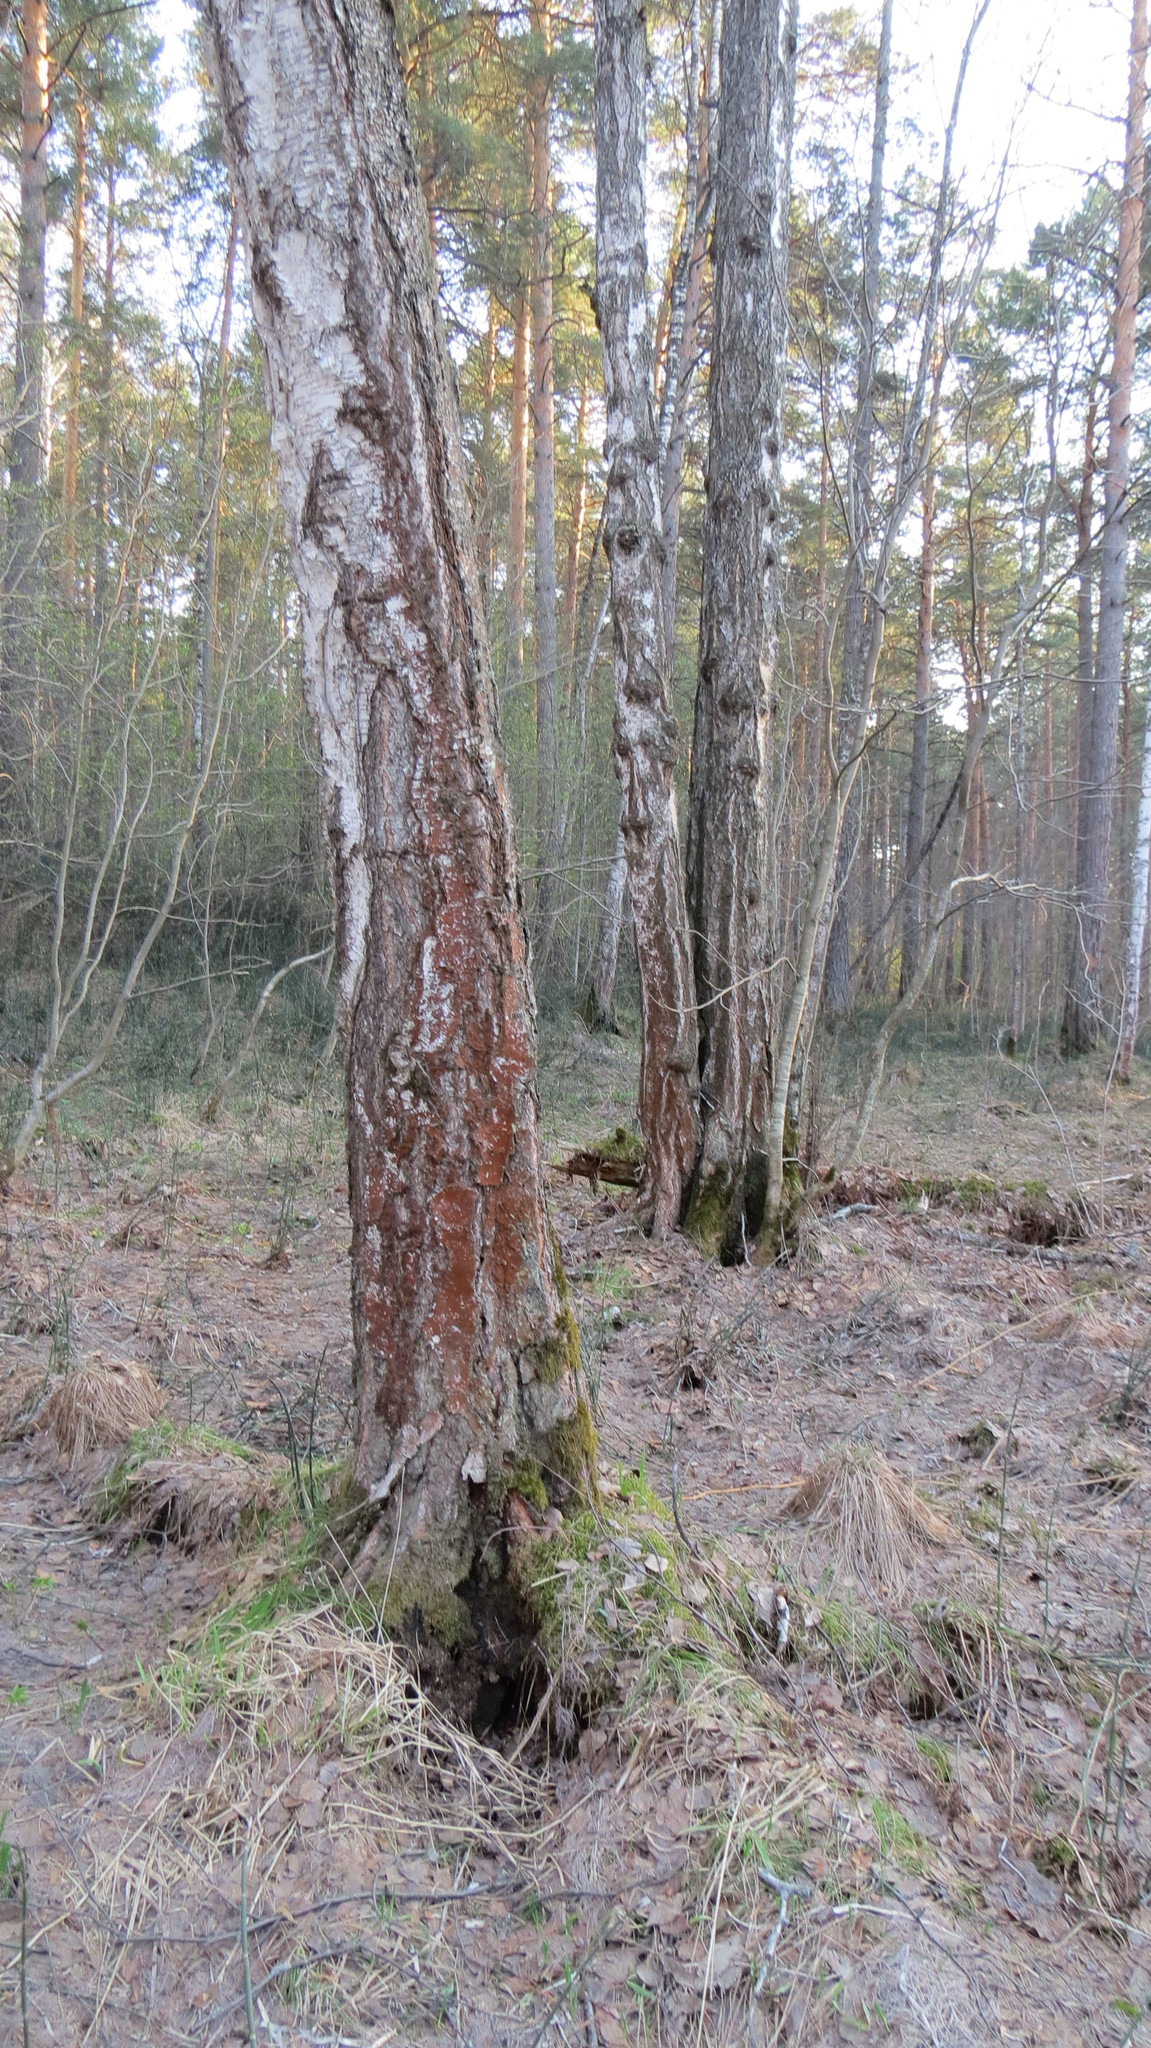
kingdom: Plantae
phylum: Chlorophyta
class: Ulvophyceae
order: Trentepohliales
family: Trentepohliaceae
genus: Trentepohlia
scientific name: Trentepohlia
